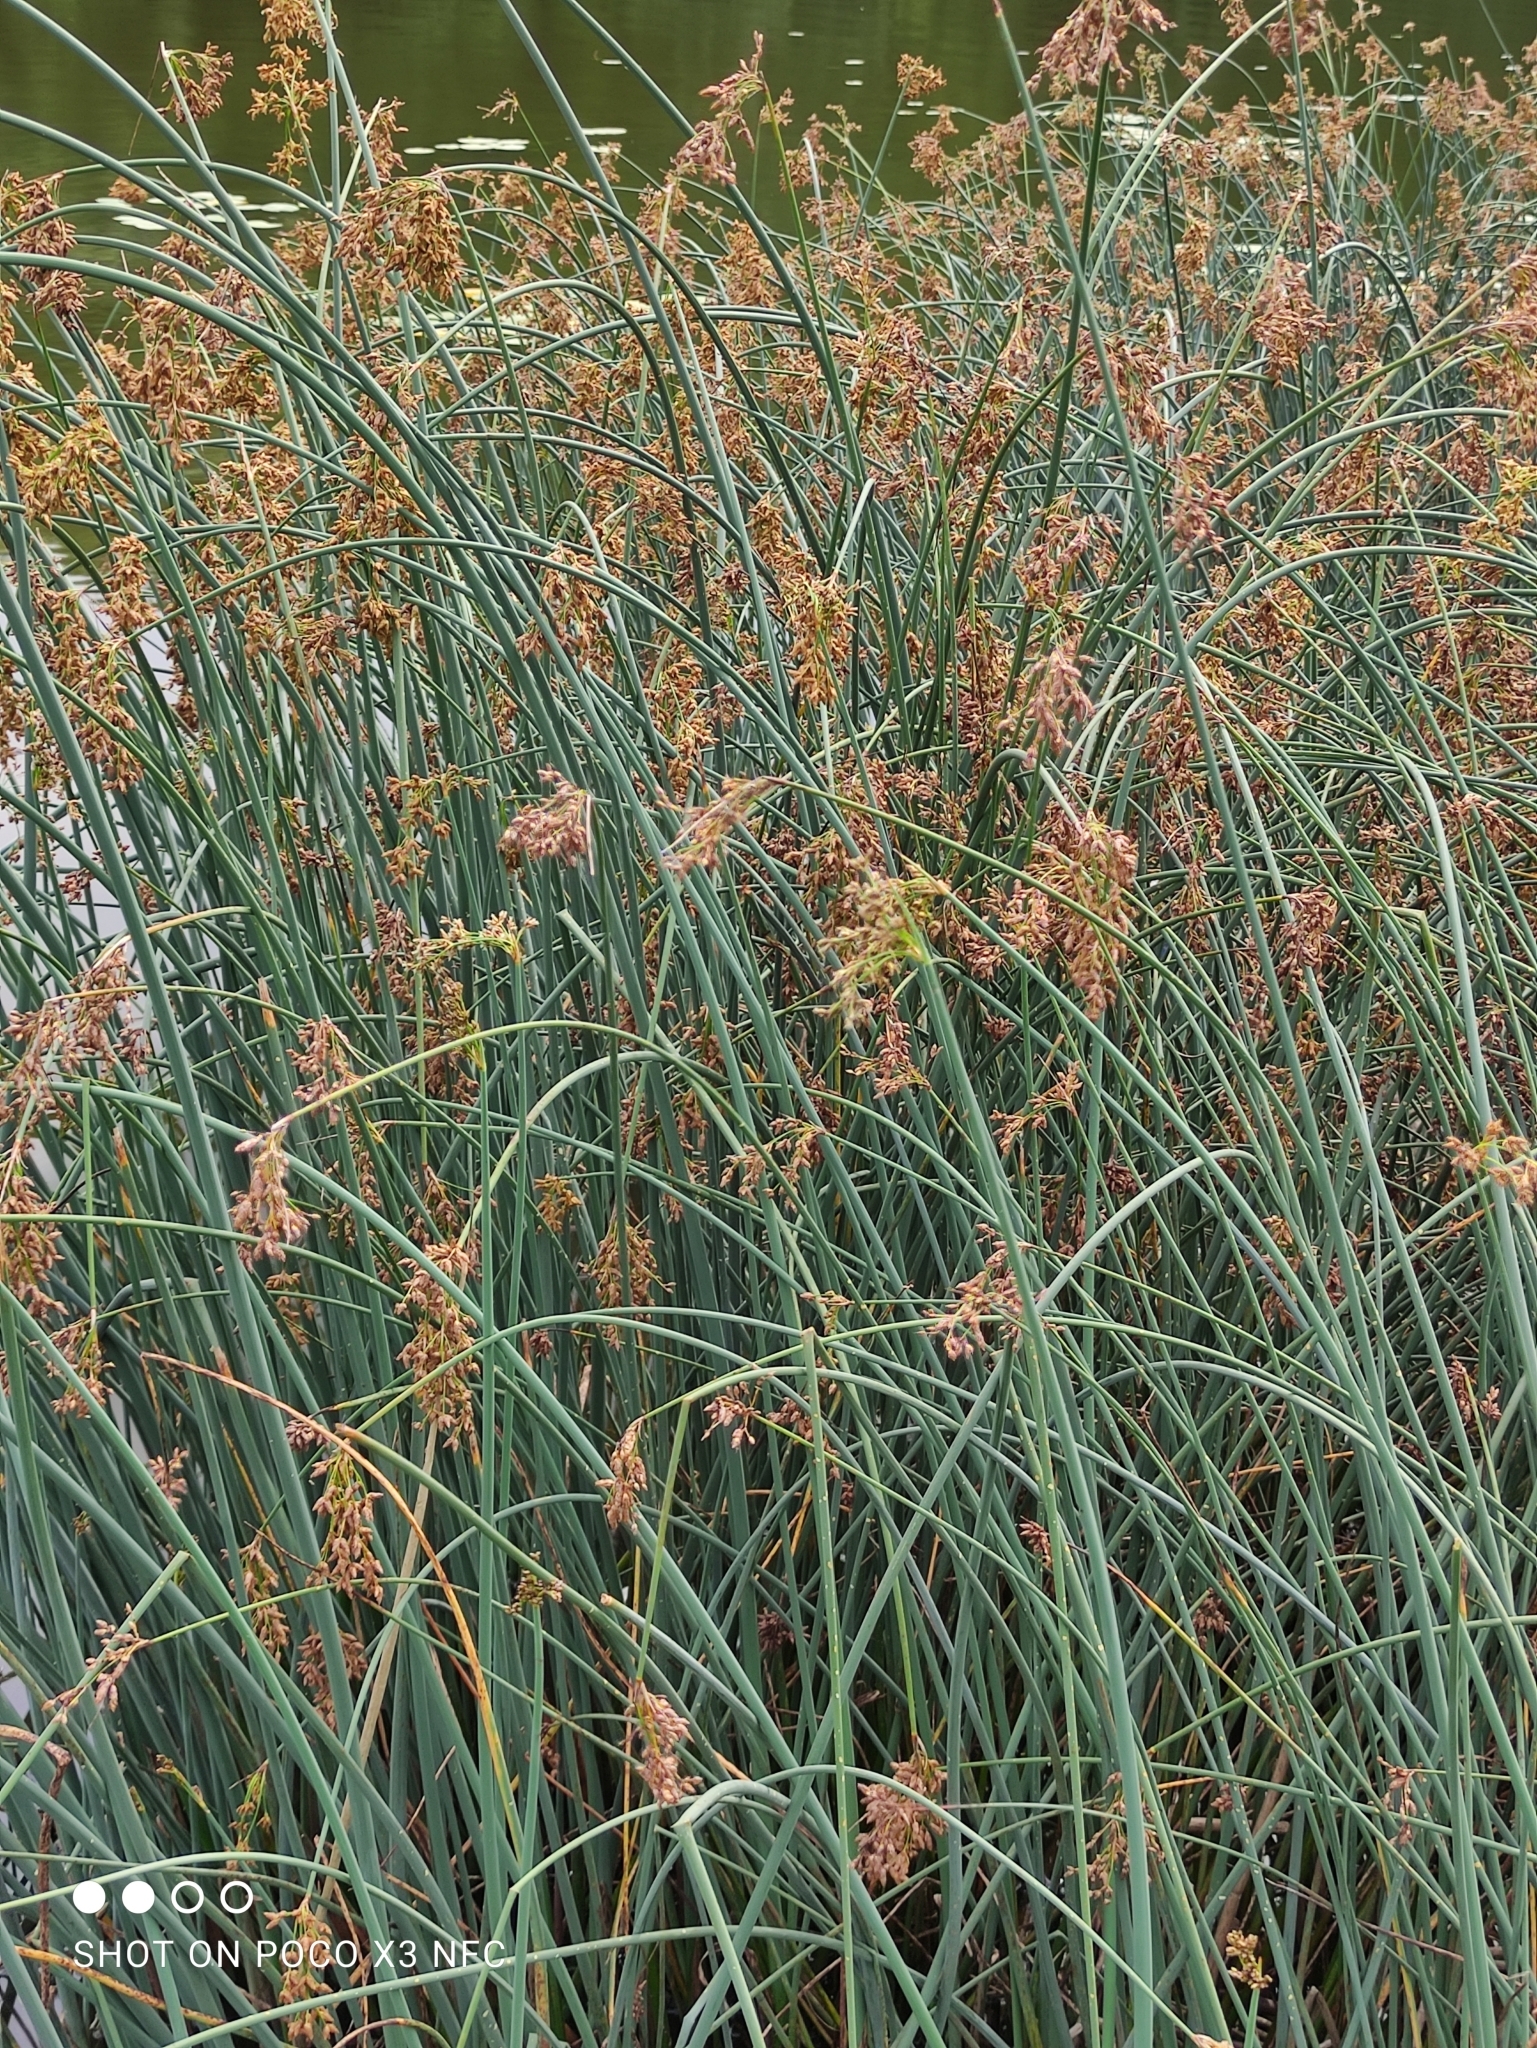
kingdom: Plantae
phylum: Tracheophyta
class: Liliopsida
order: Poales
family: Cyperaceae
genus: Schoenoplectus
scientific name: Schoenoplectus lacustris
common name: Common club-rush
